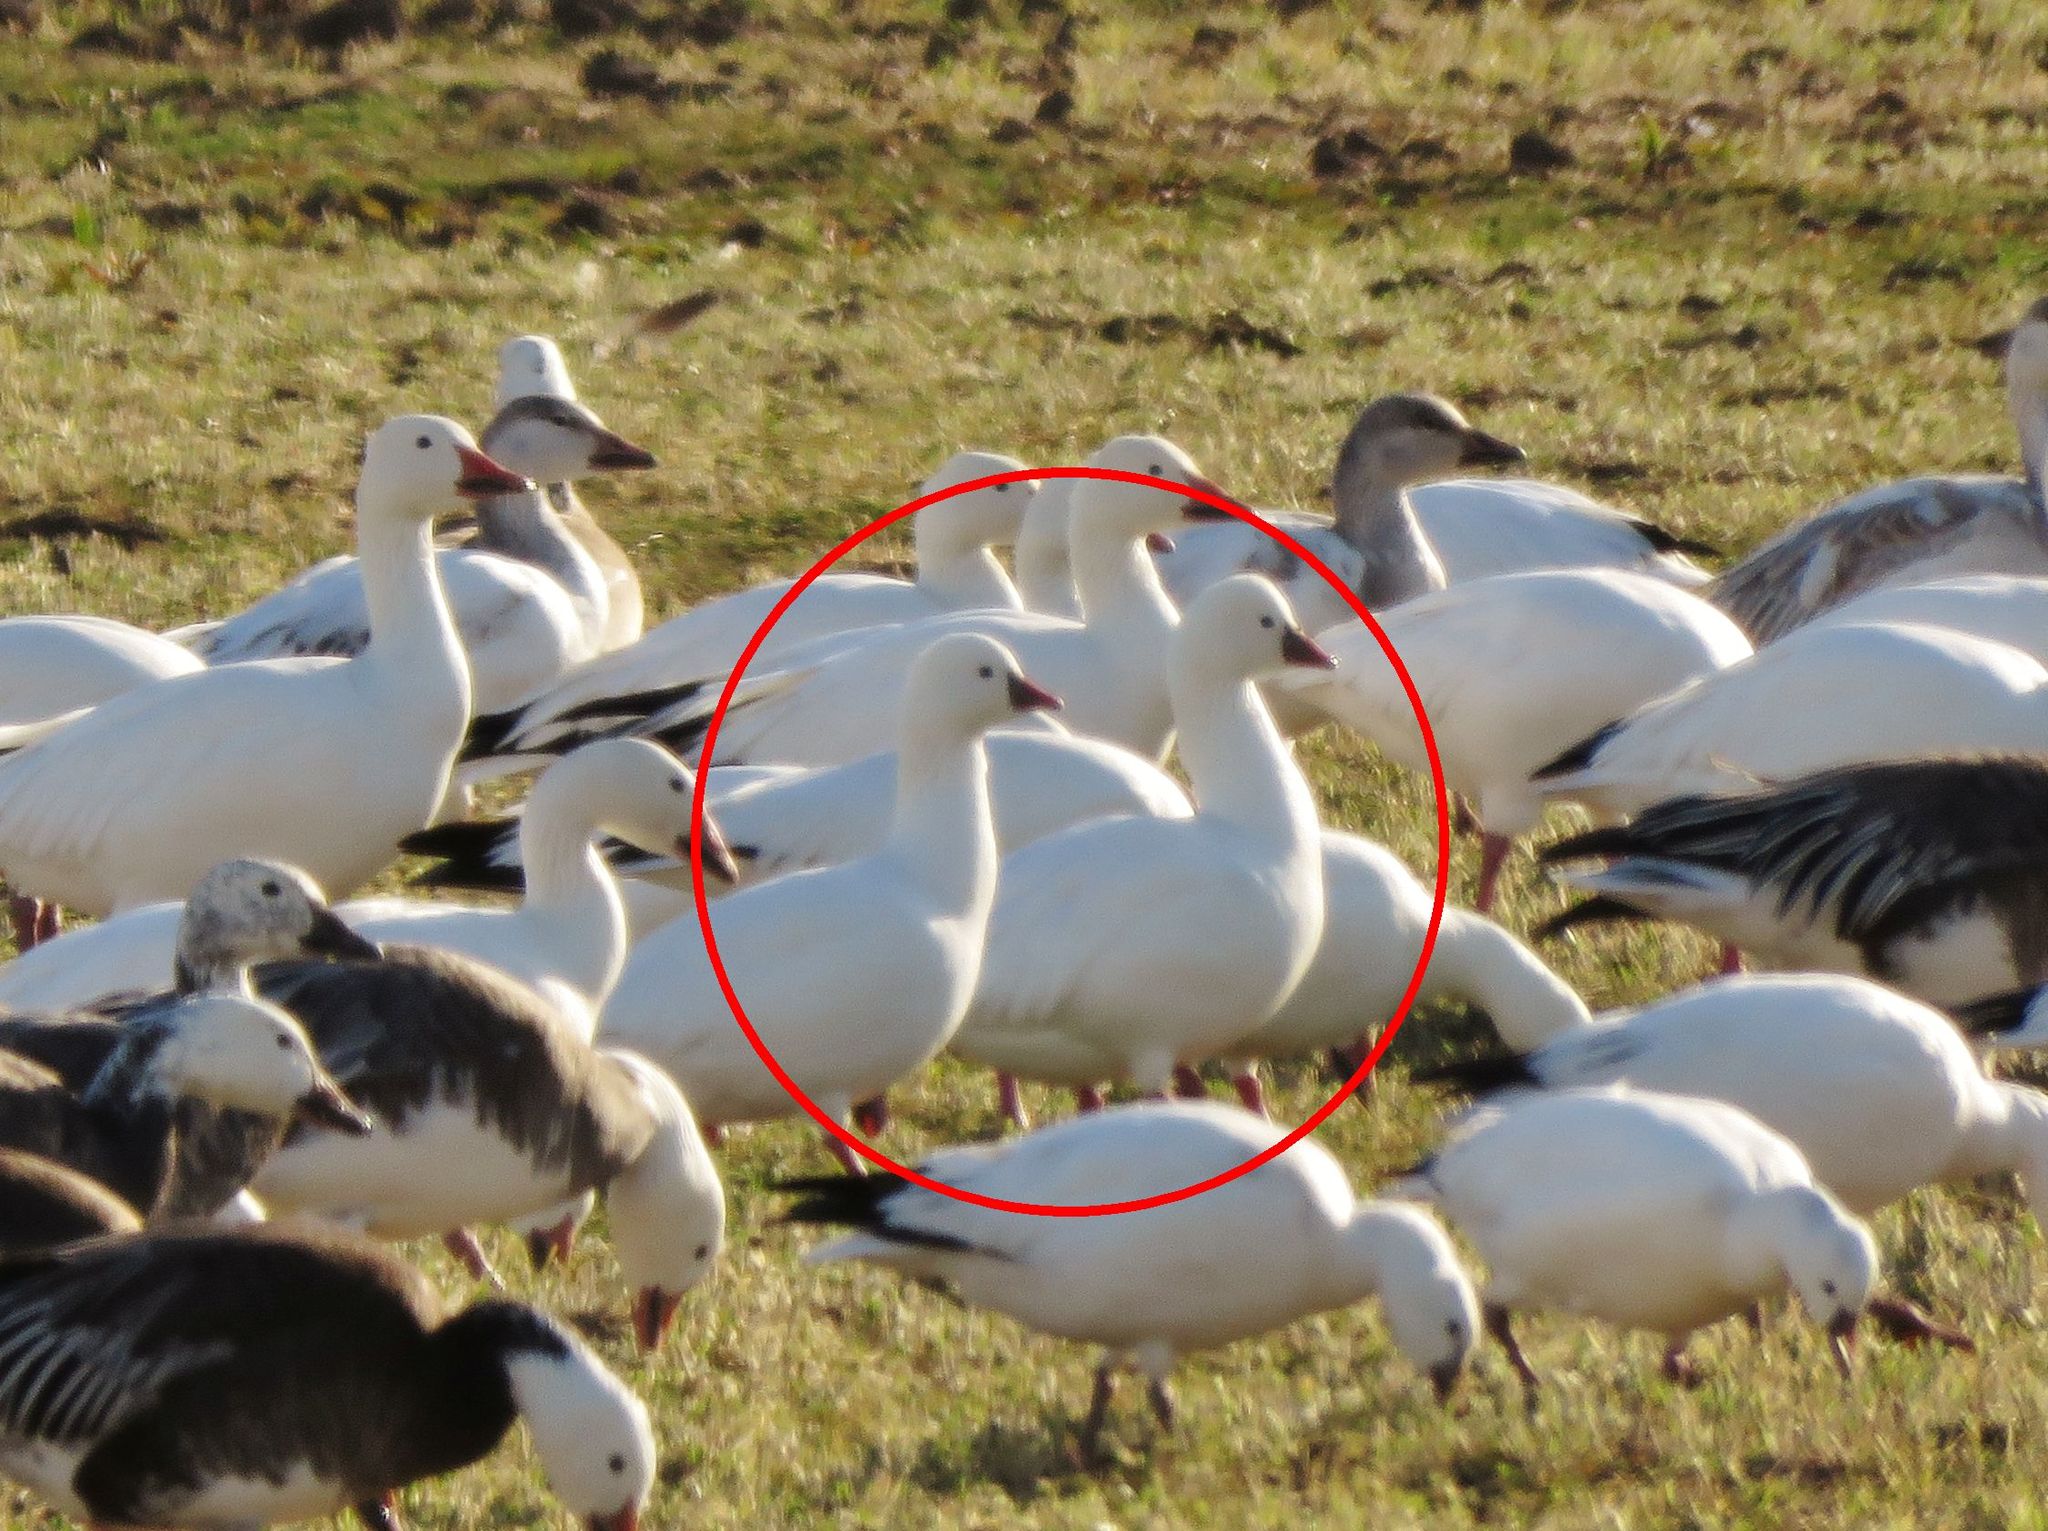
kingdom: Animalia
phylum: Chordata
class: Aves
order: Anseriformes
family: Anatidae
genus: Anser
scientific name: Anser rossii
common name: Ross's goose
